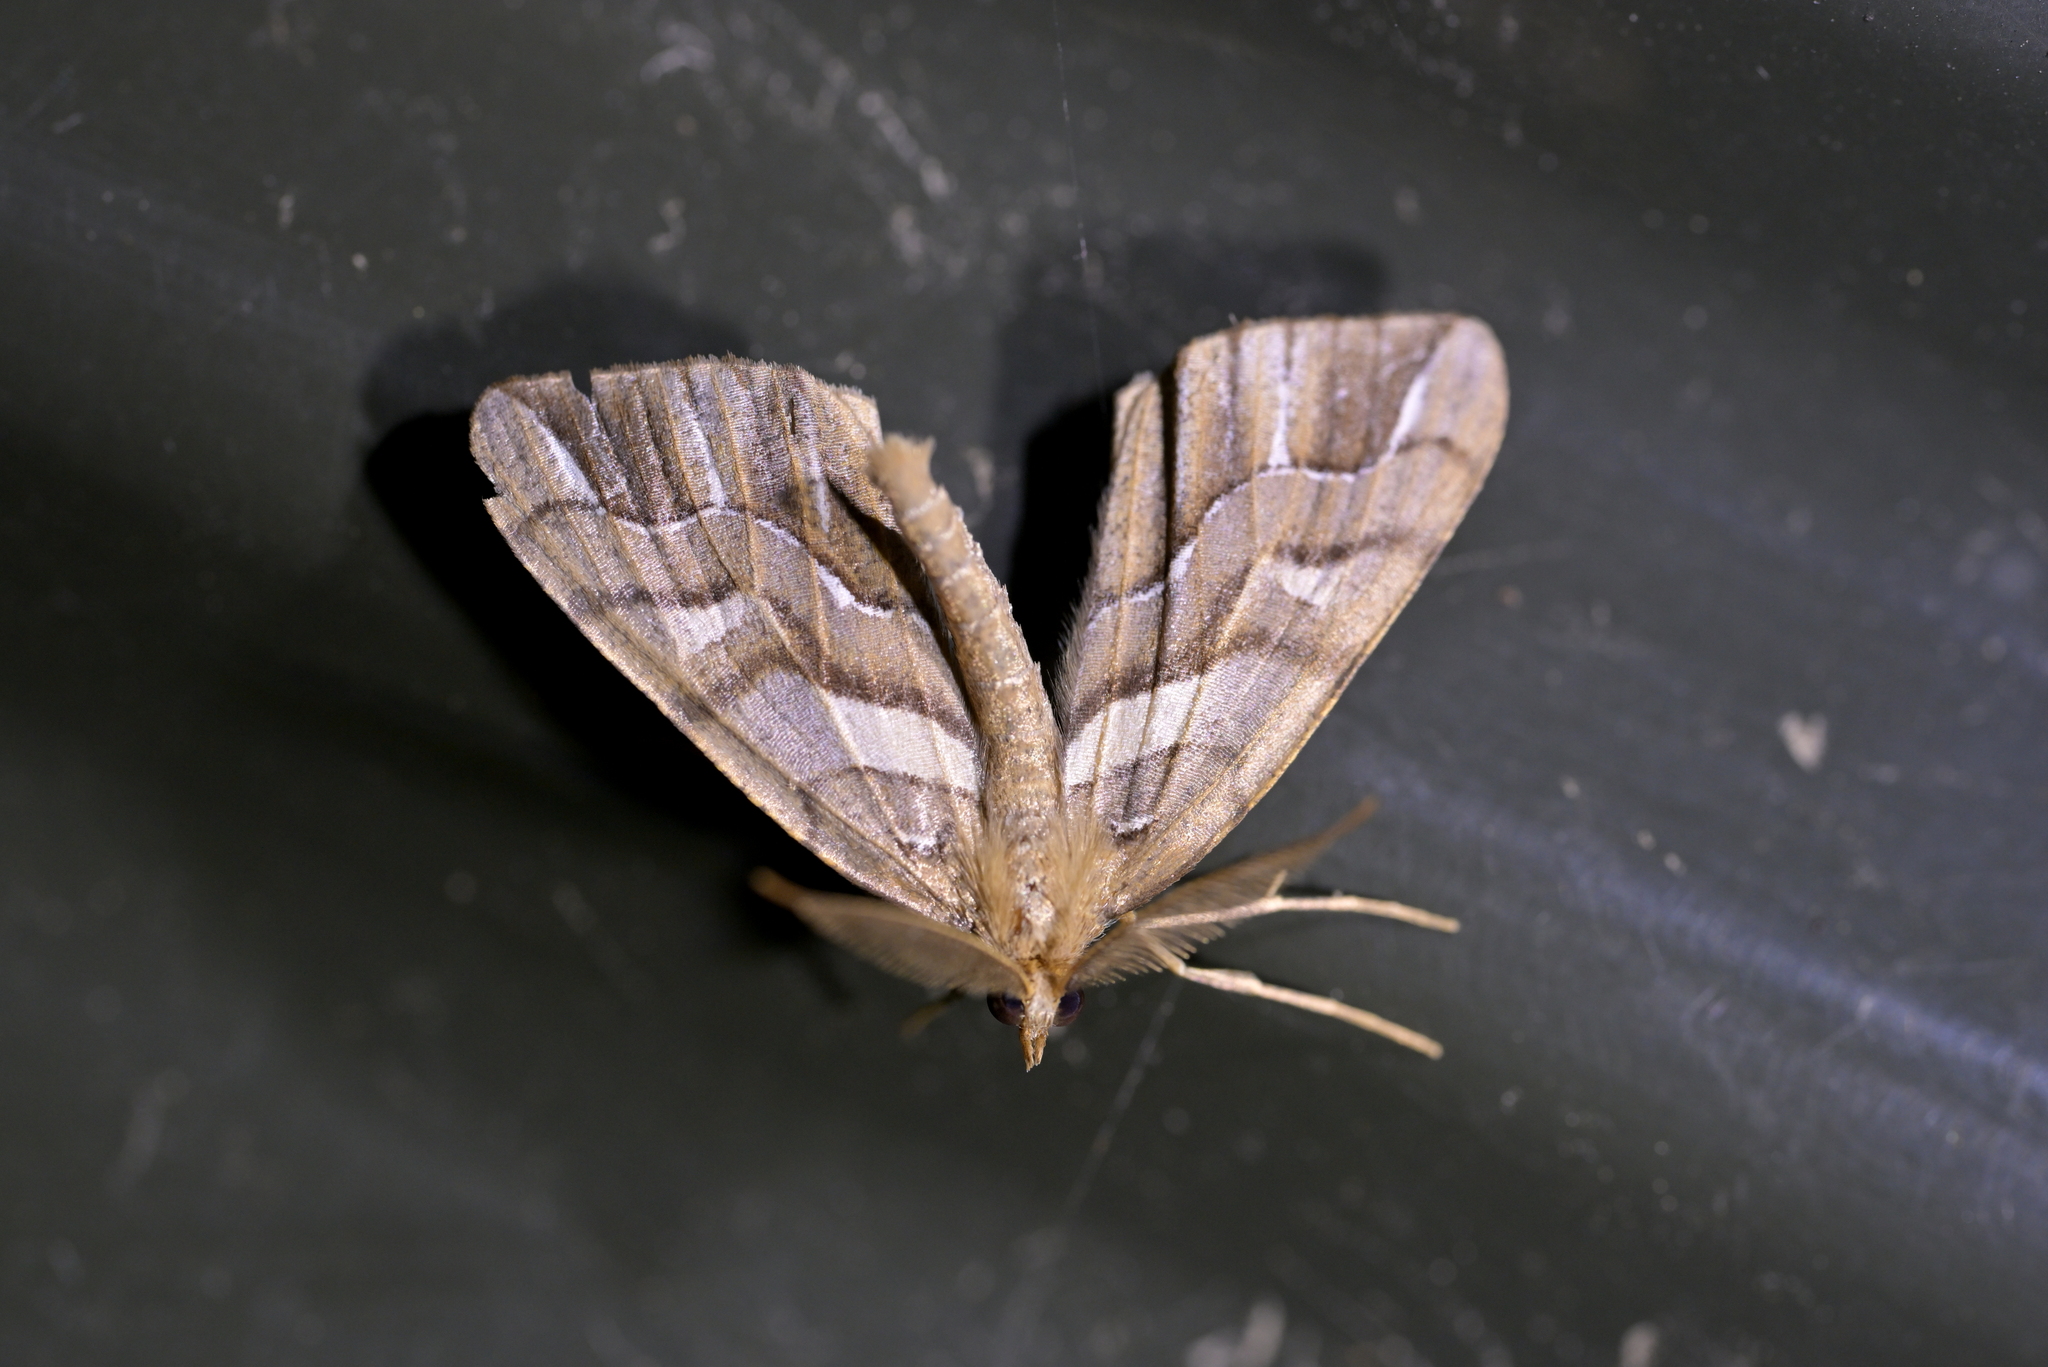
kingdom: Animalia
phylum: Arthropoda
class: Insecta
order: Lepidoptera
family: Geometridae
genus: Chalastra
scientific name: Chalastra aristarcha
